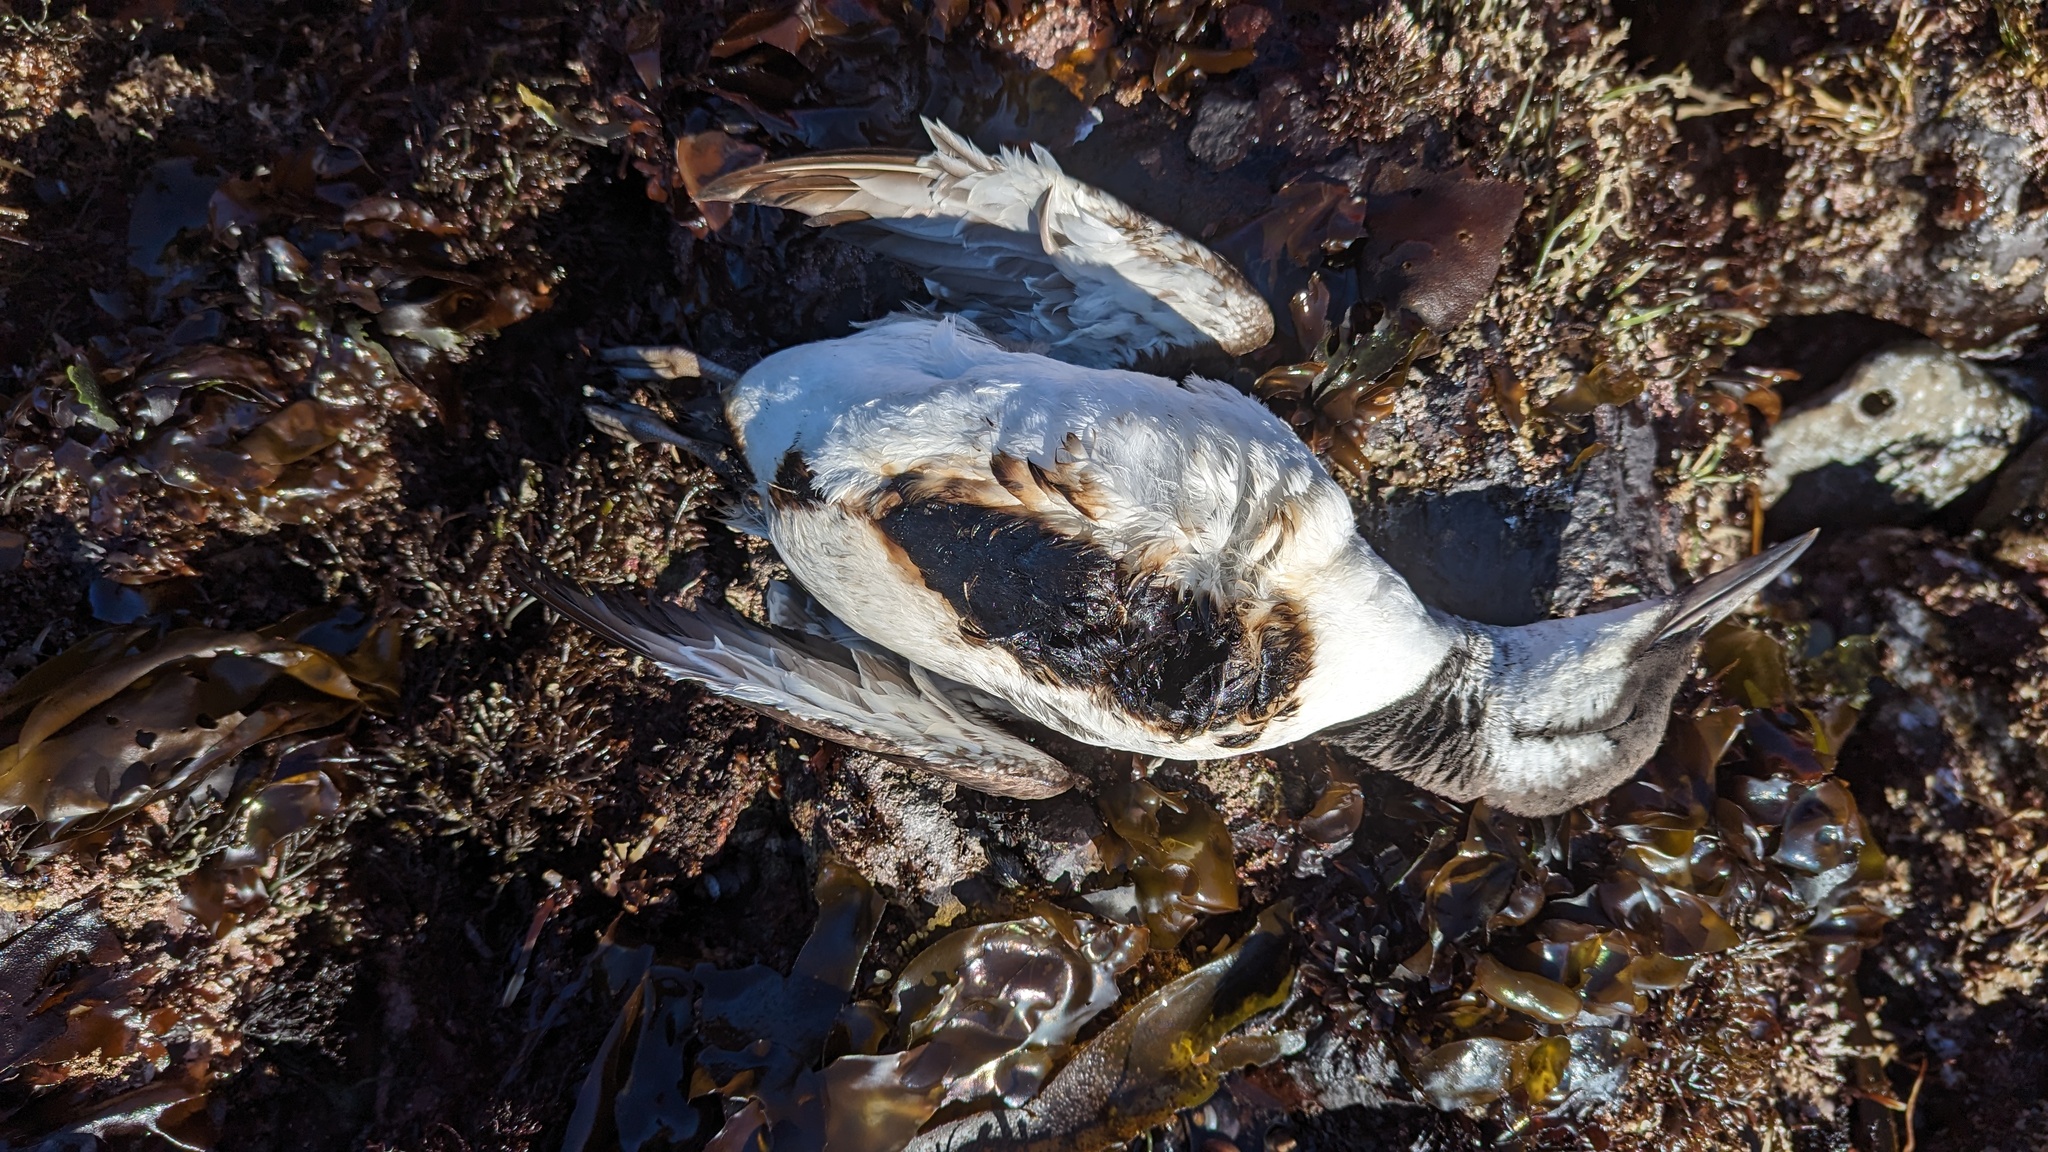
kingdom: Animalia
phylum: Chordata
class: Aves
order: Charadriiformes
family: Alcidae
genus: Uria
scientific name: Uria aalge
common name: Common murre
